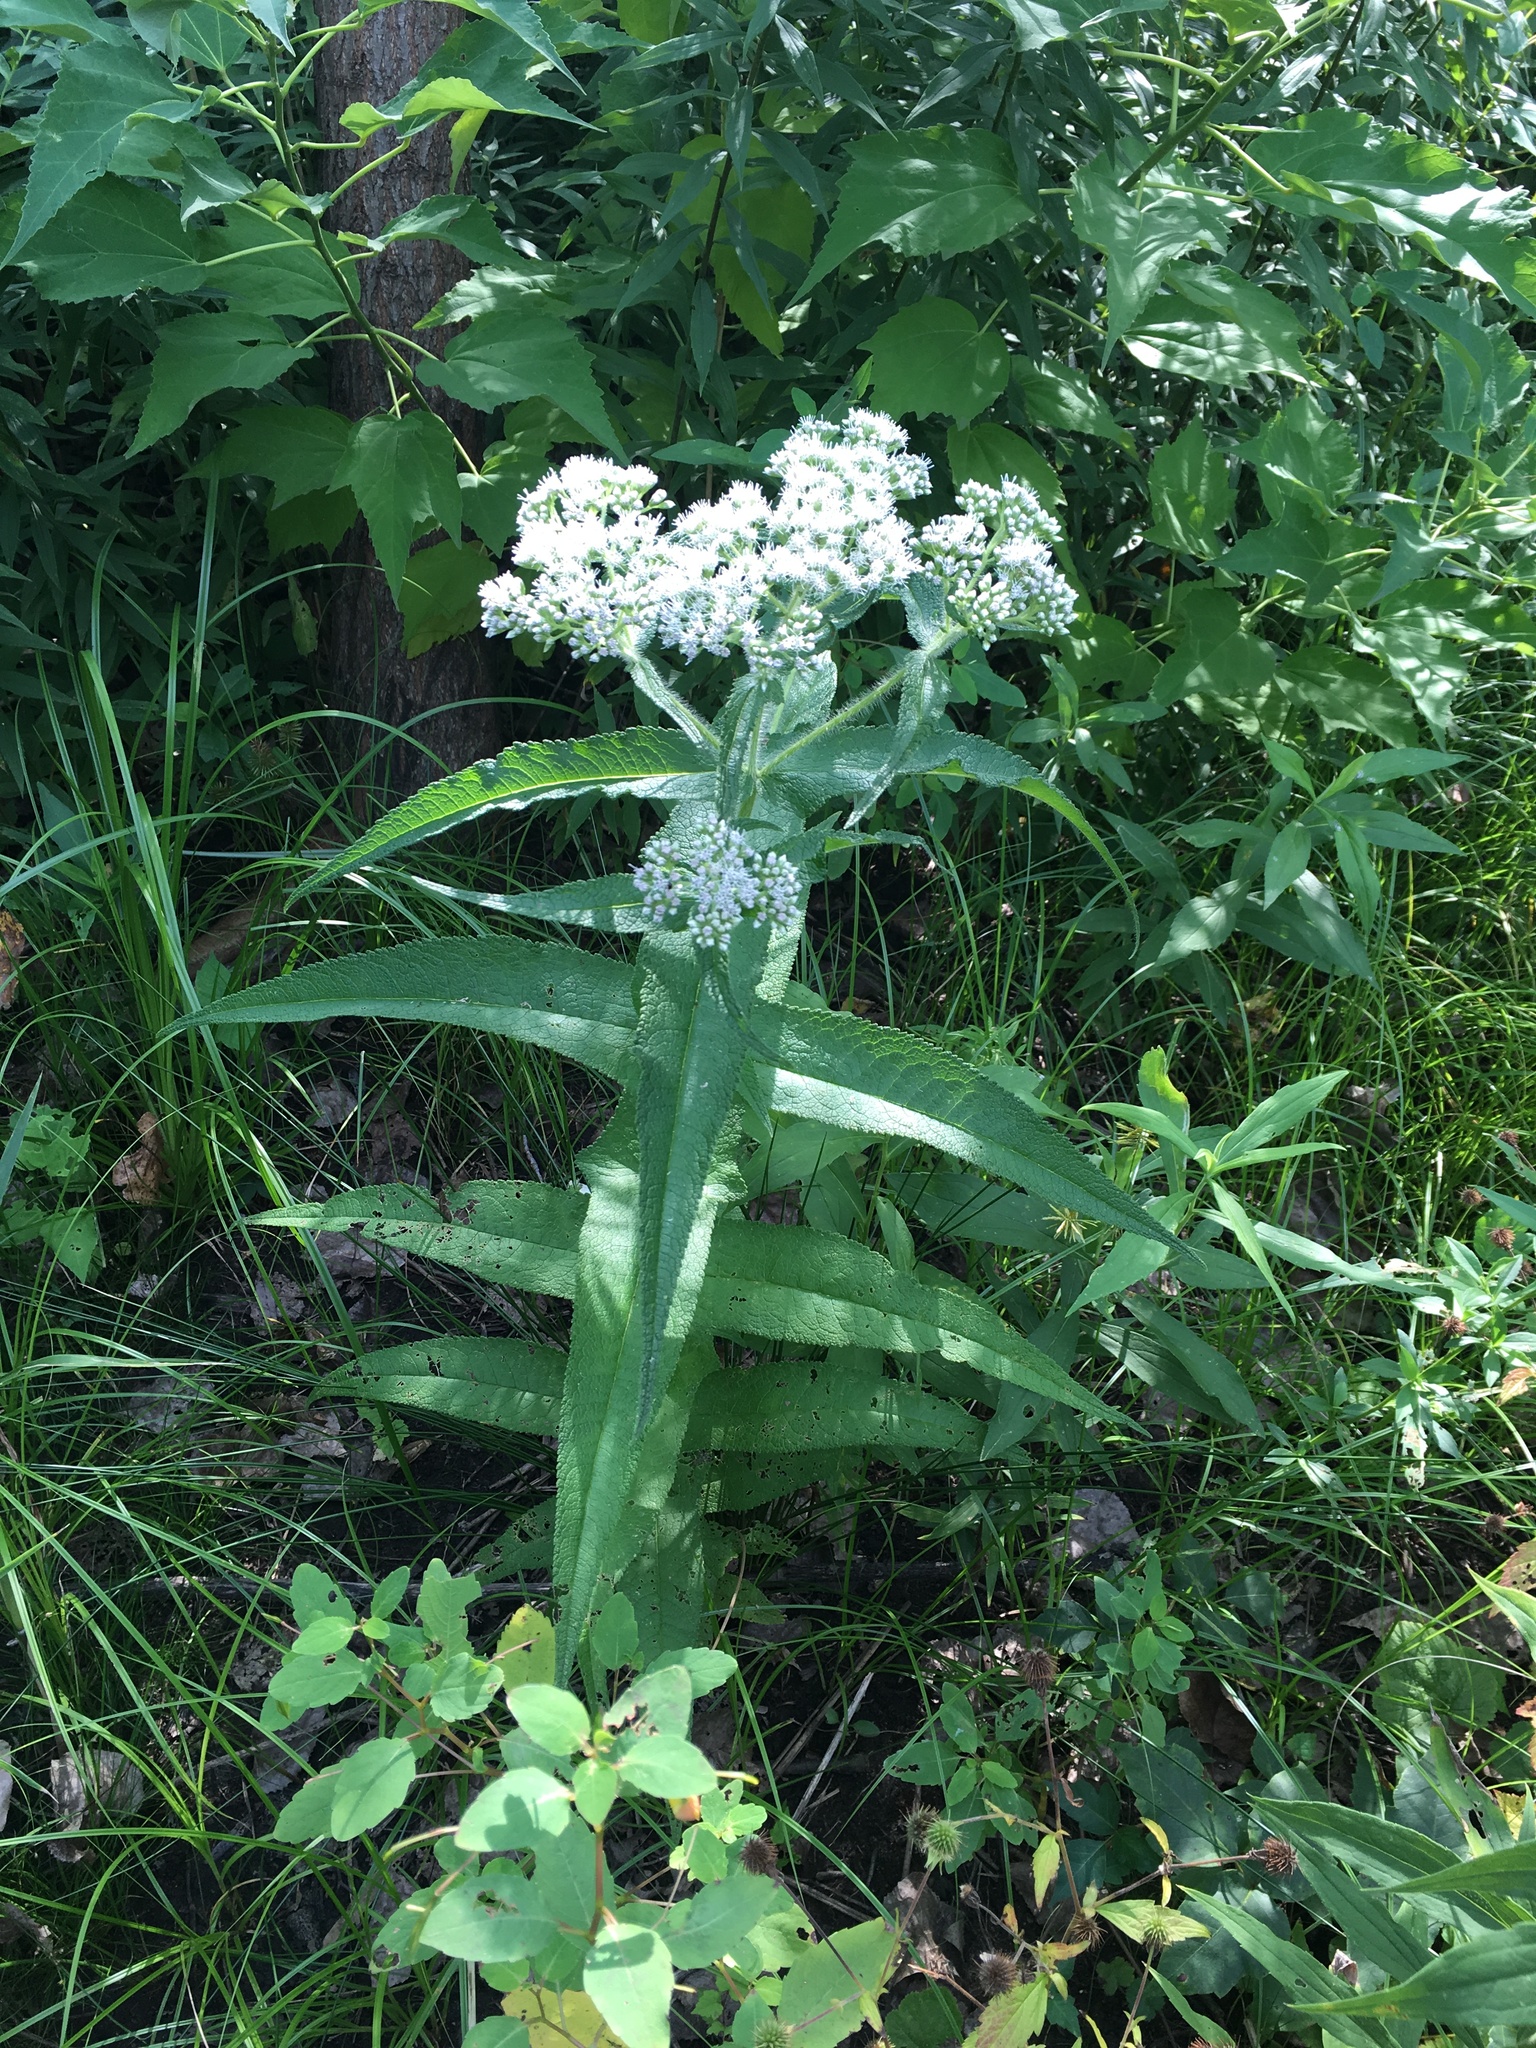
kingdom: Plantae
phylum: Tracheophyta
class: Magnoliopsida
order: Asterales
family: Asteraceae
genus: Eupatorium
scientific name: Eupatorium perfoliatum
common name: Boneset
